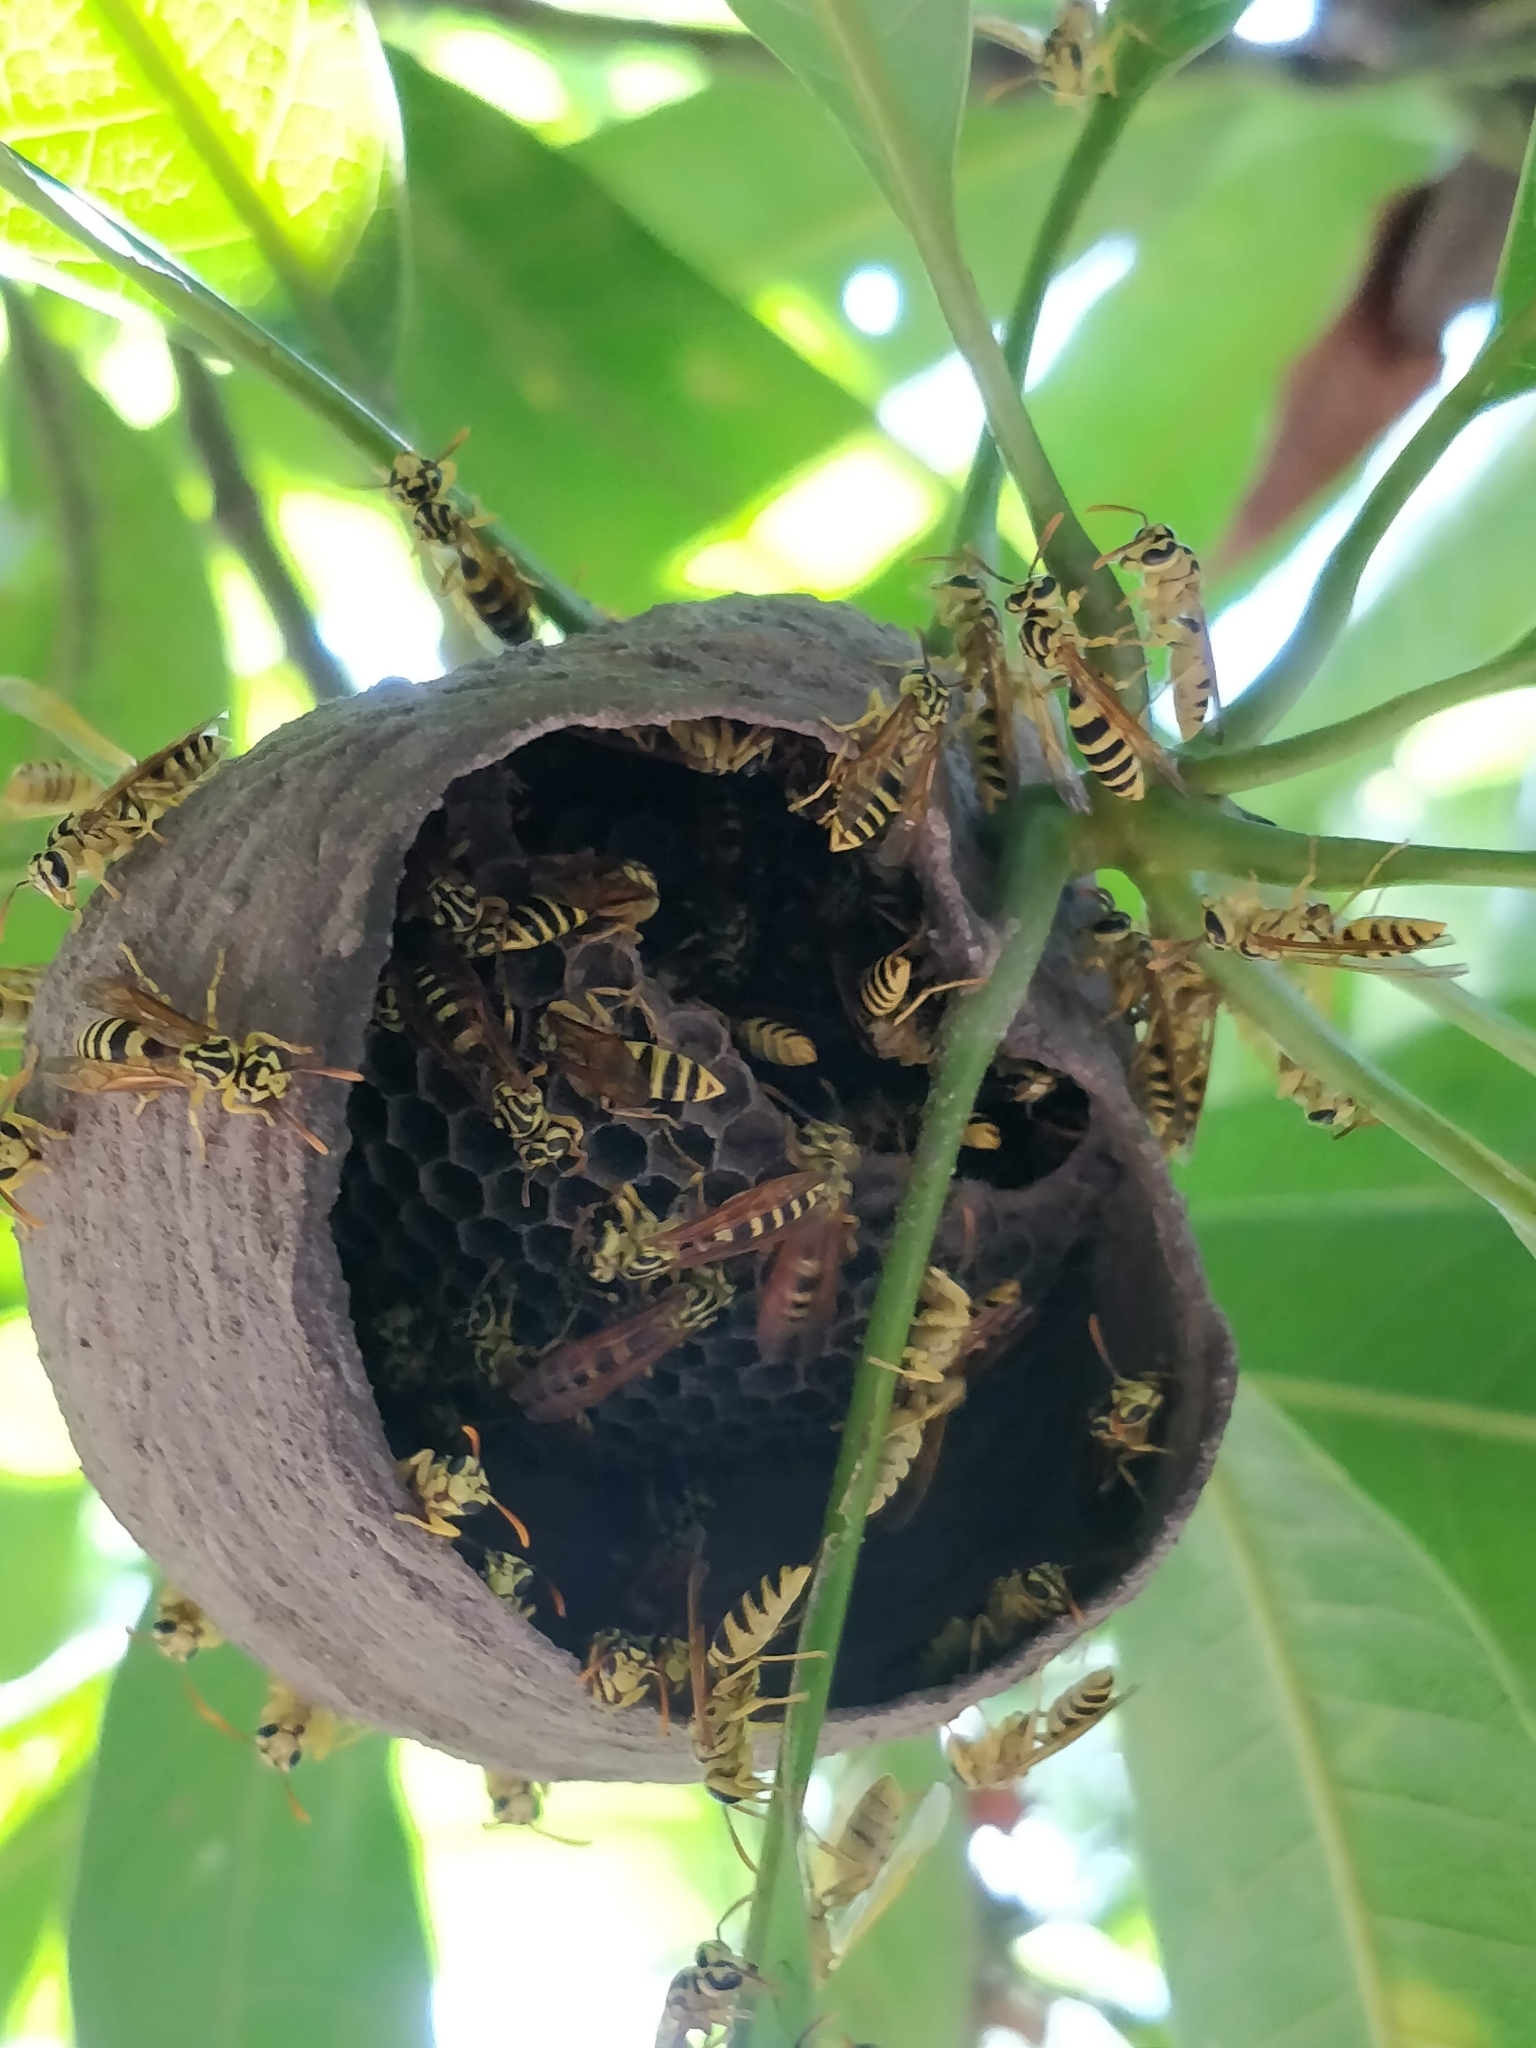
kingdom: Animalia
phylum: Arthropoda
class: Insecta
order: Hymenoptera
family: Eumenidae
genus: Polybia
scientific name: Polybia emaciata
